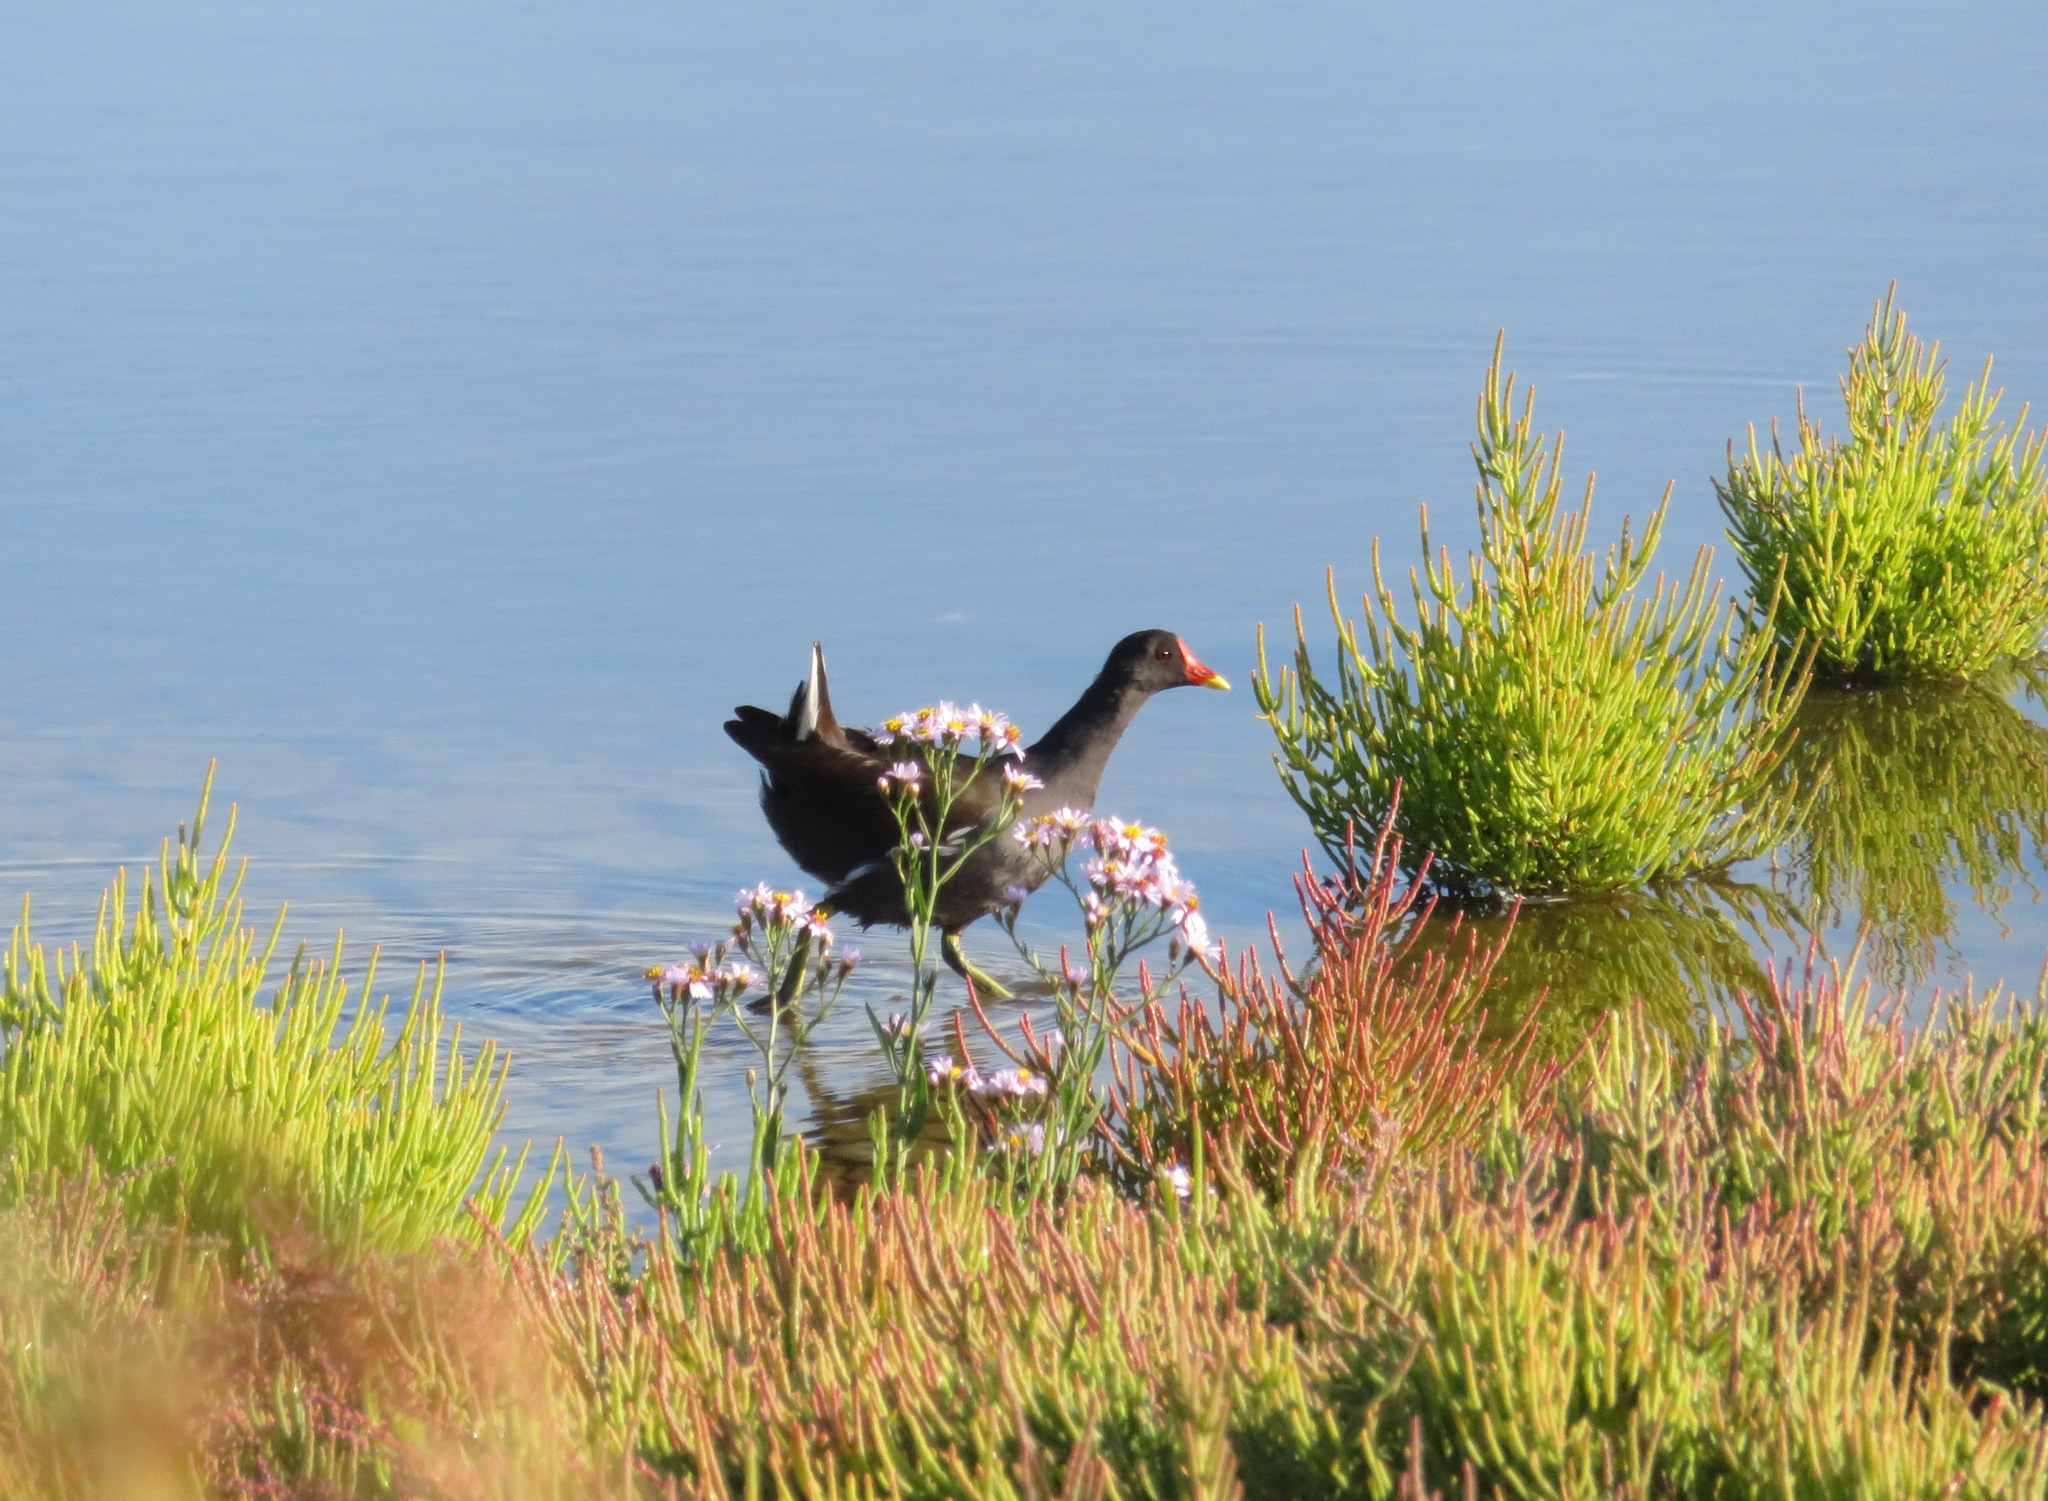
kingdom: Animalia
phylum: Chordata
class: Aves
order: Gruiformes
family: Rallidae
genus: Gallinula
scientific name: Gallinula chloropus
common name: Common moorhen
